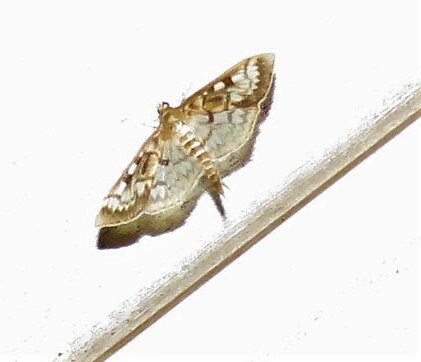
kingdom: Animalia
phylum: Arthropoda
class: Insecta
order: Lepidoptera
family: Crambidae
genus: Herpetogramma
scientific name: Herpetogramma thestealis
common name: Zigzag herpetogramma moth
